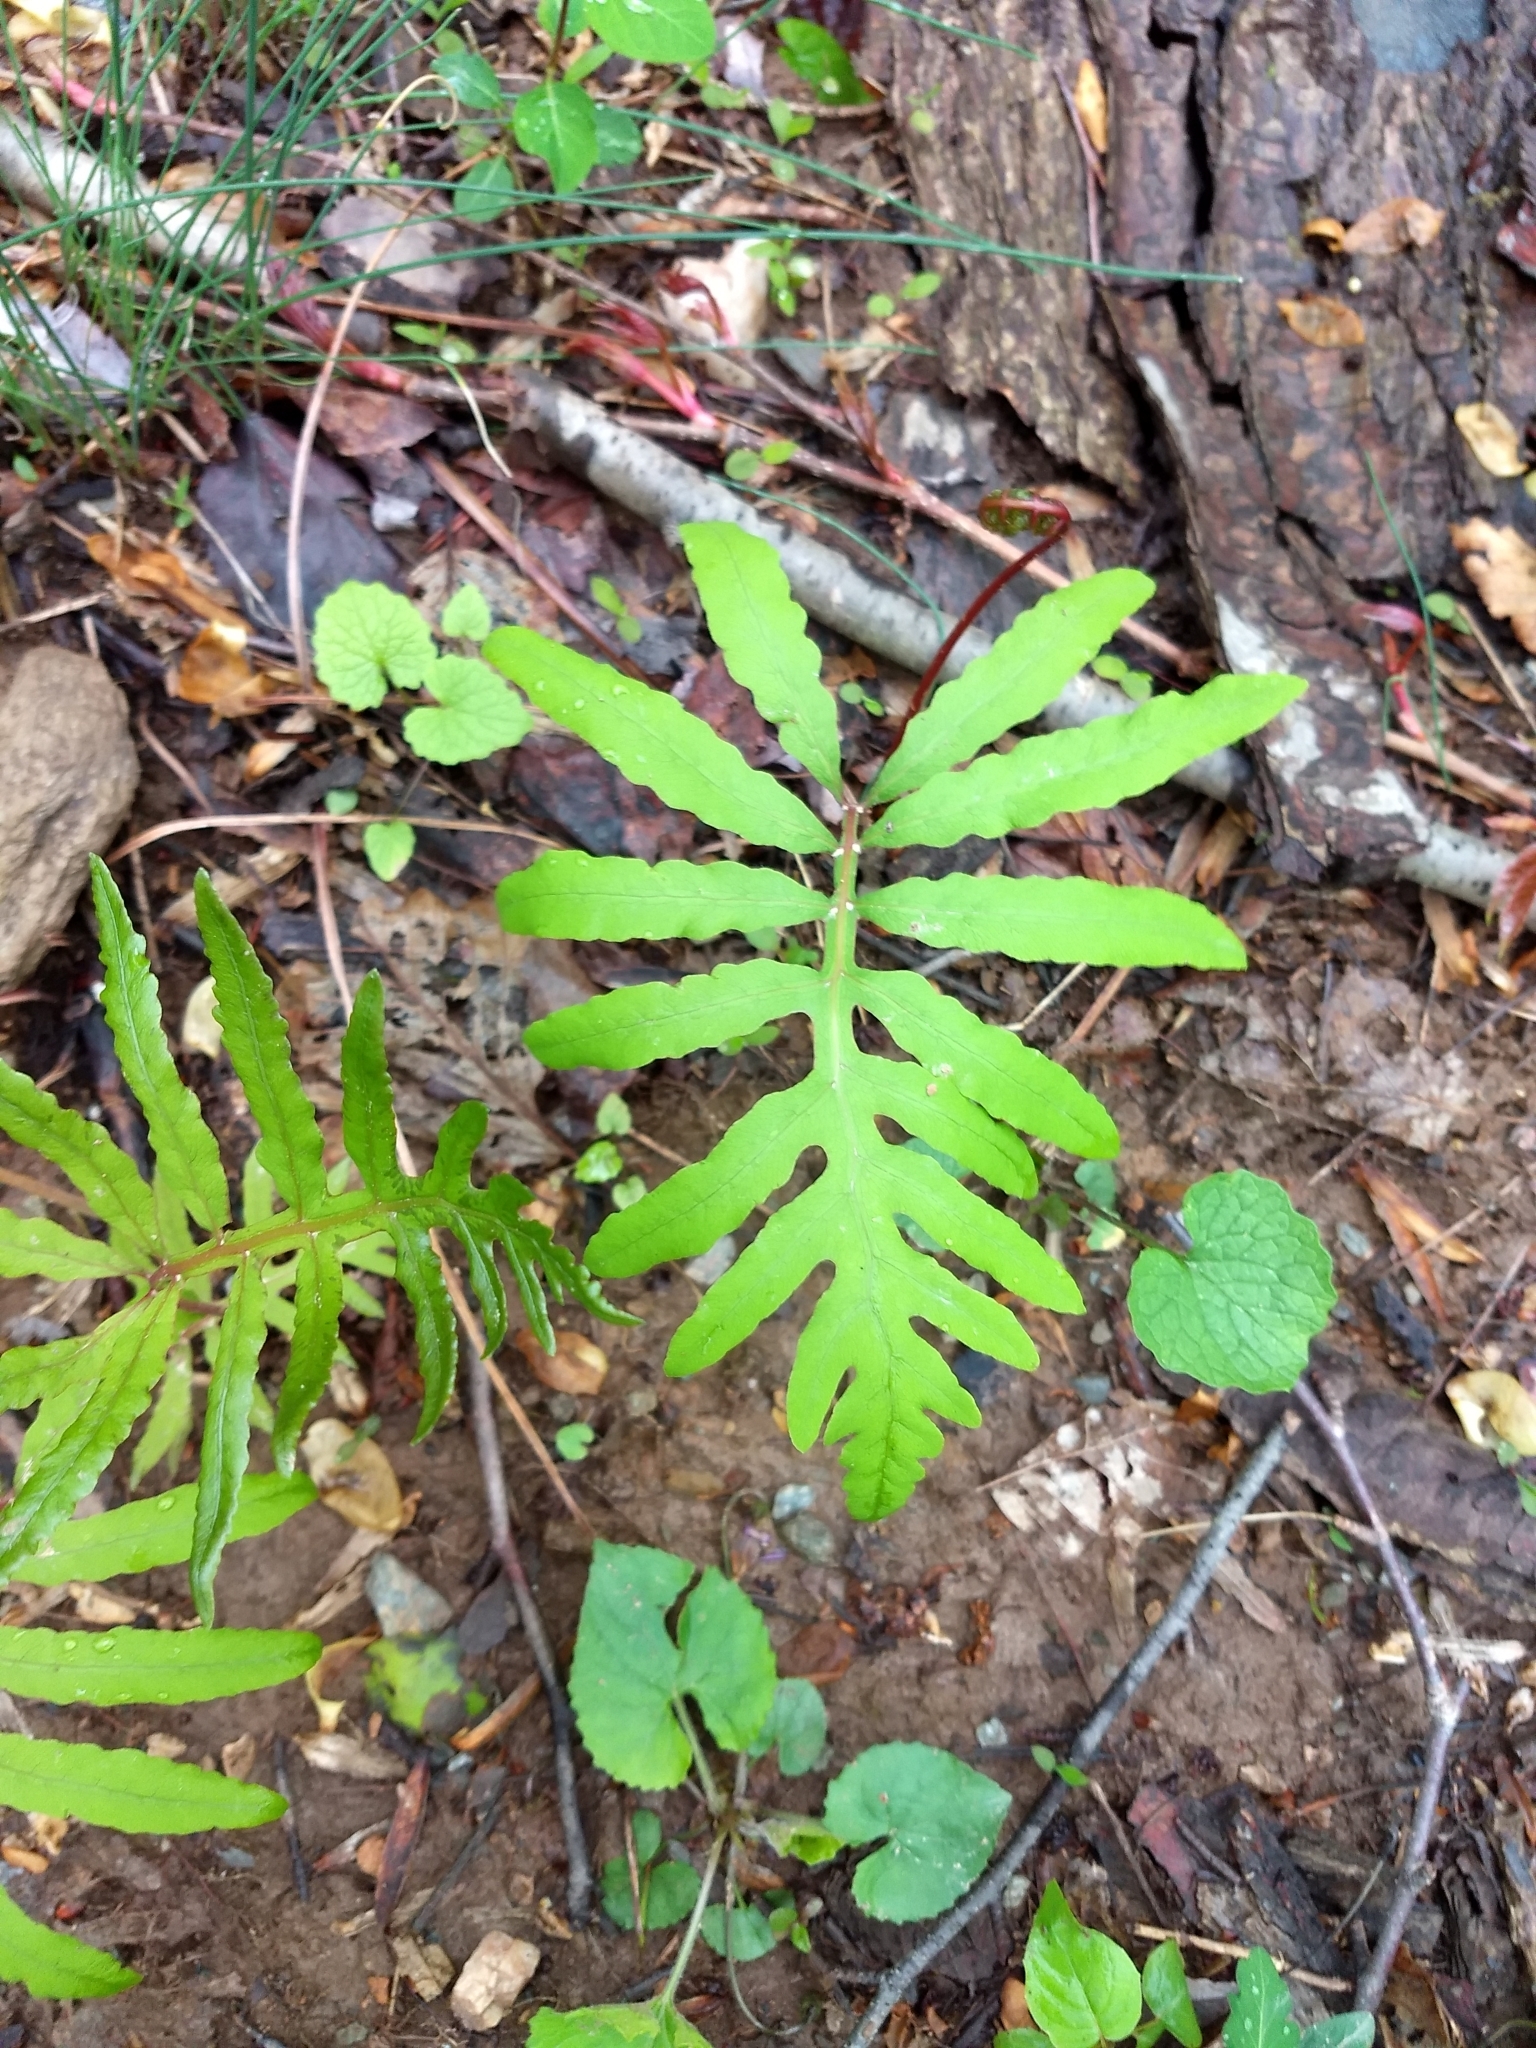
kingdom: Plantae
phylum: Tracheophyta
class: Polypodiopsida
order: Polypodiales
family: Onocleaceae
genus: Onoclea
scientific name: Onoclea sensibilis
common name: Sensitive fern
